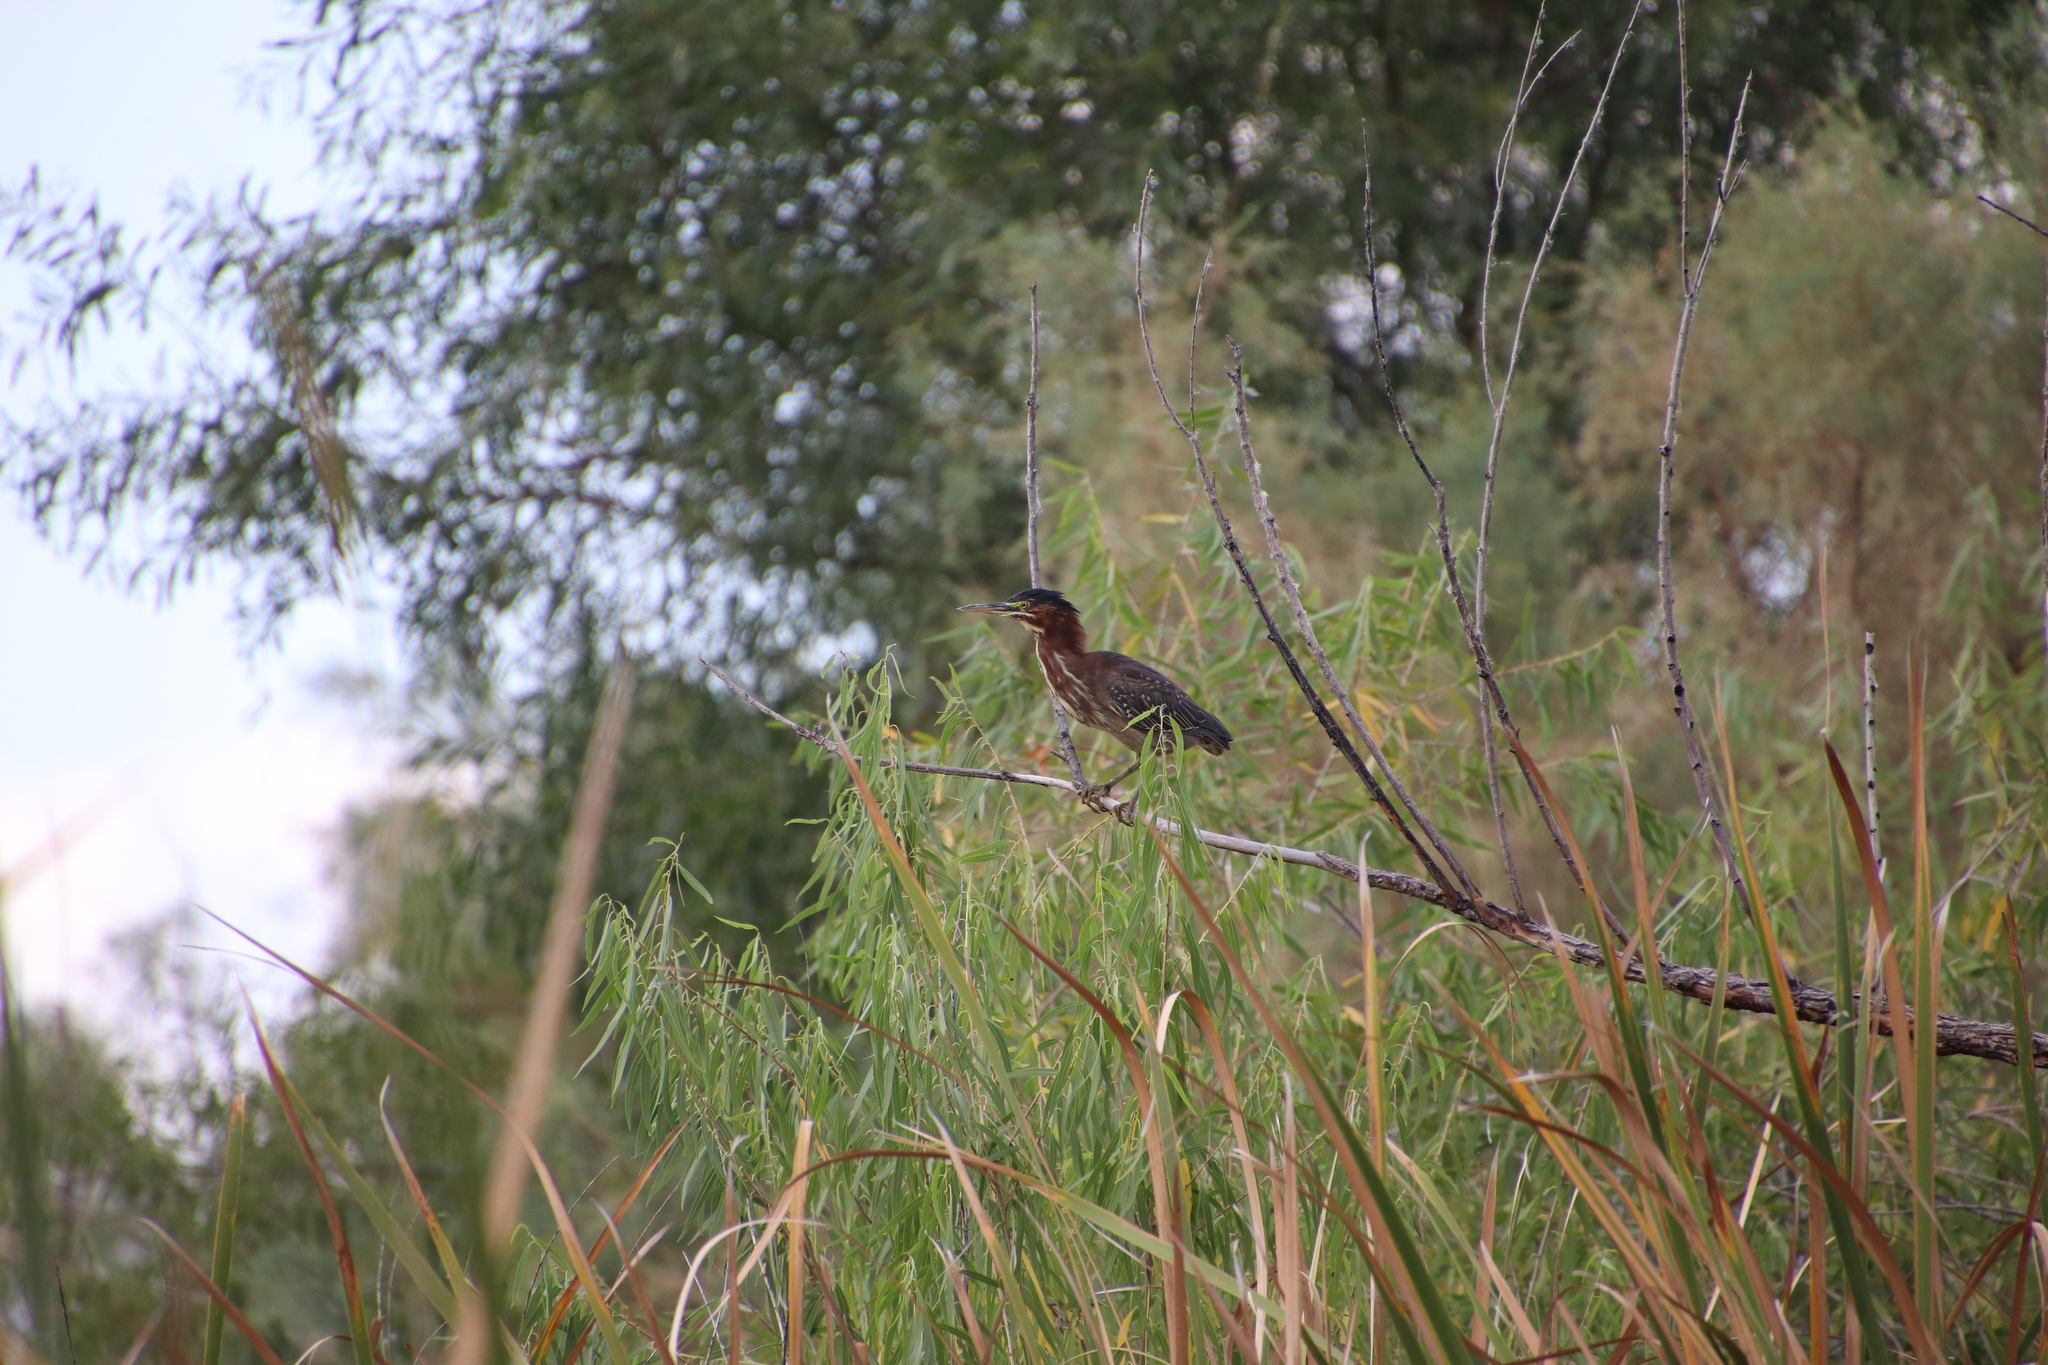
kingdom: Animalia
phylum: Chordata
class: Aves
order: Pelecaniformes
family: Ardeidae
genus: Butorides
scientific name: Butorides virescens
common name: Green heron
